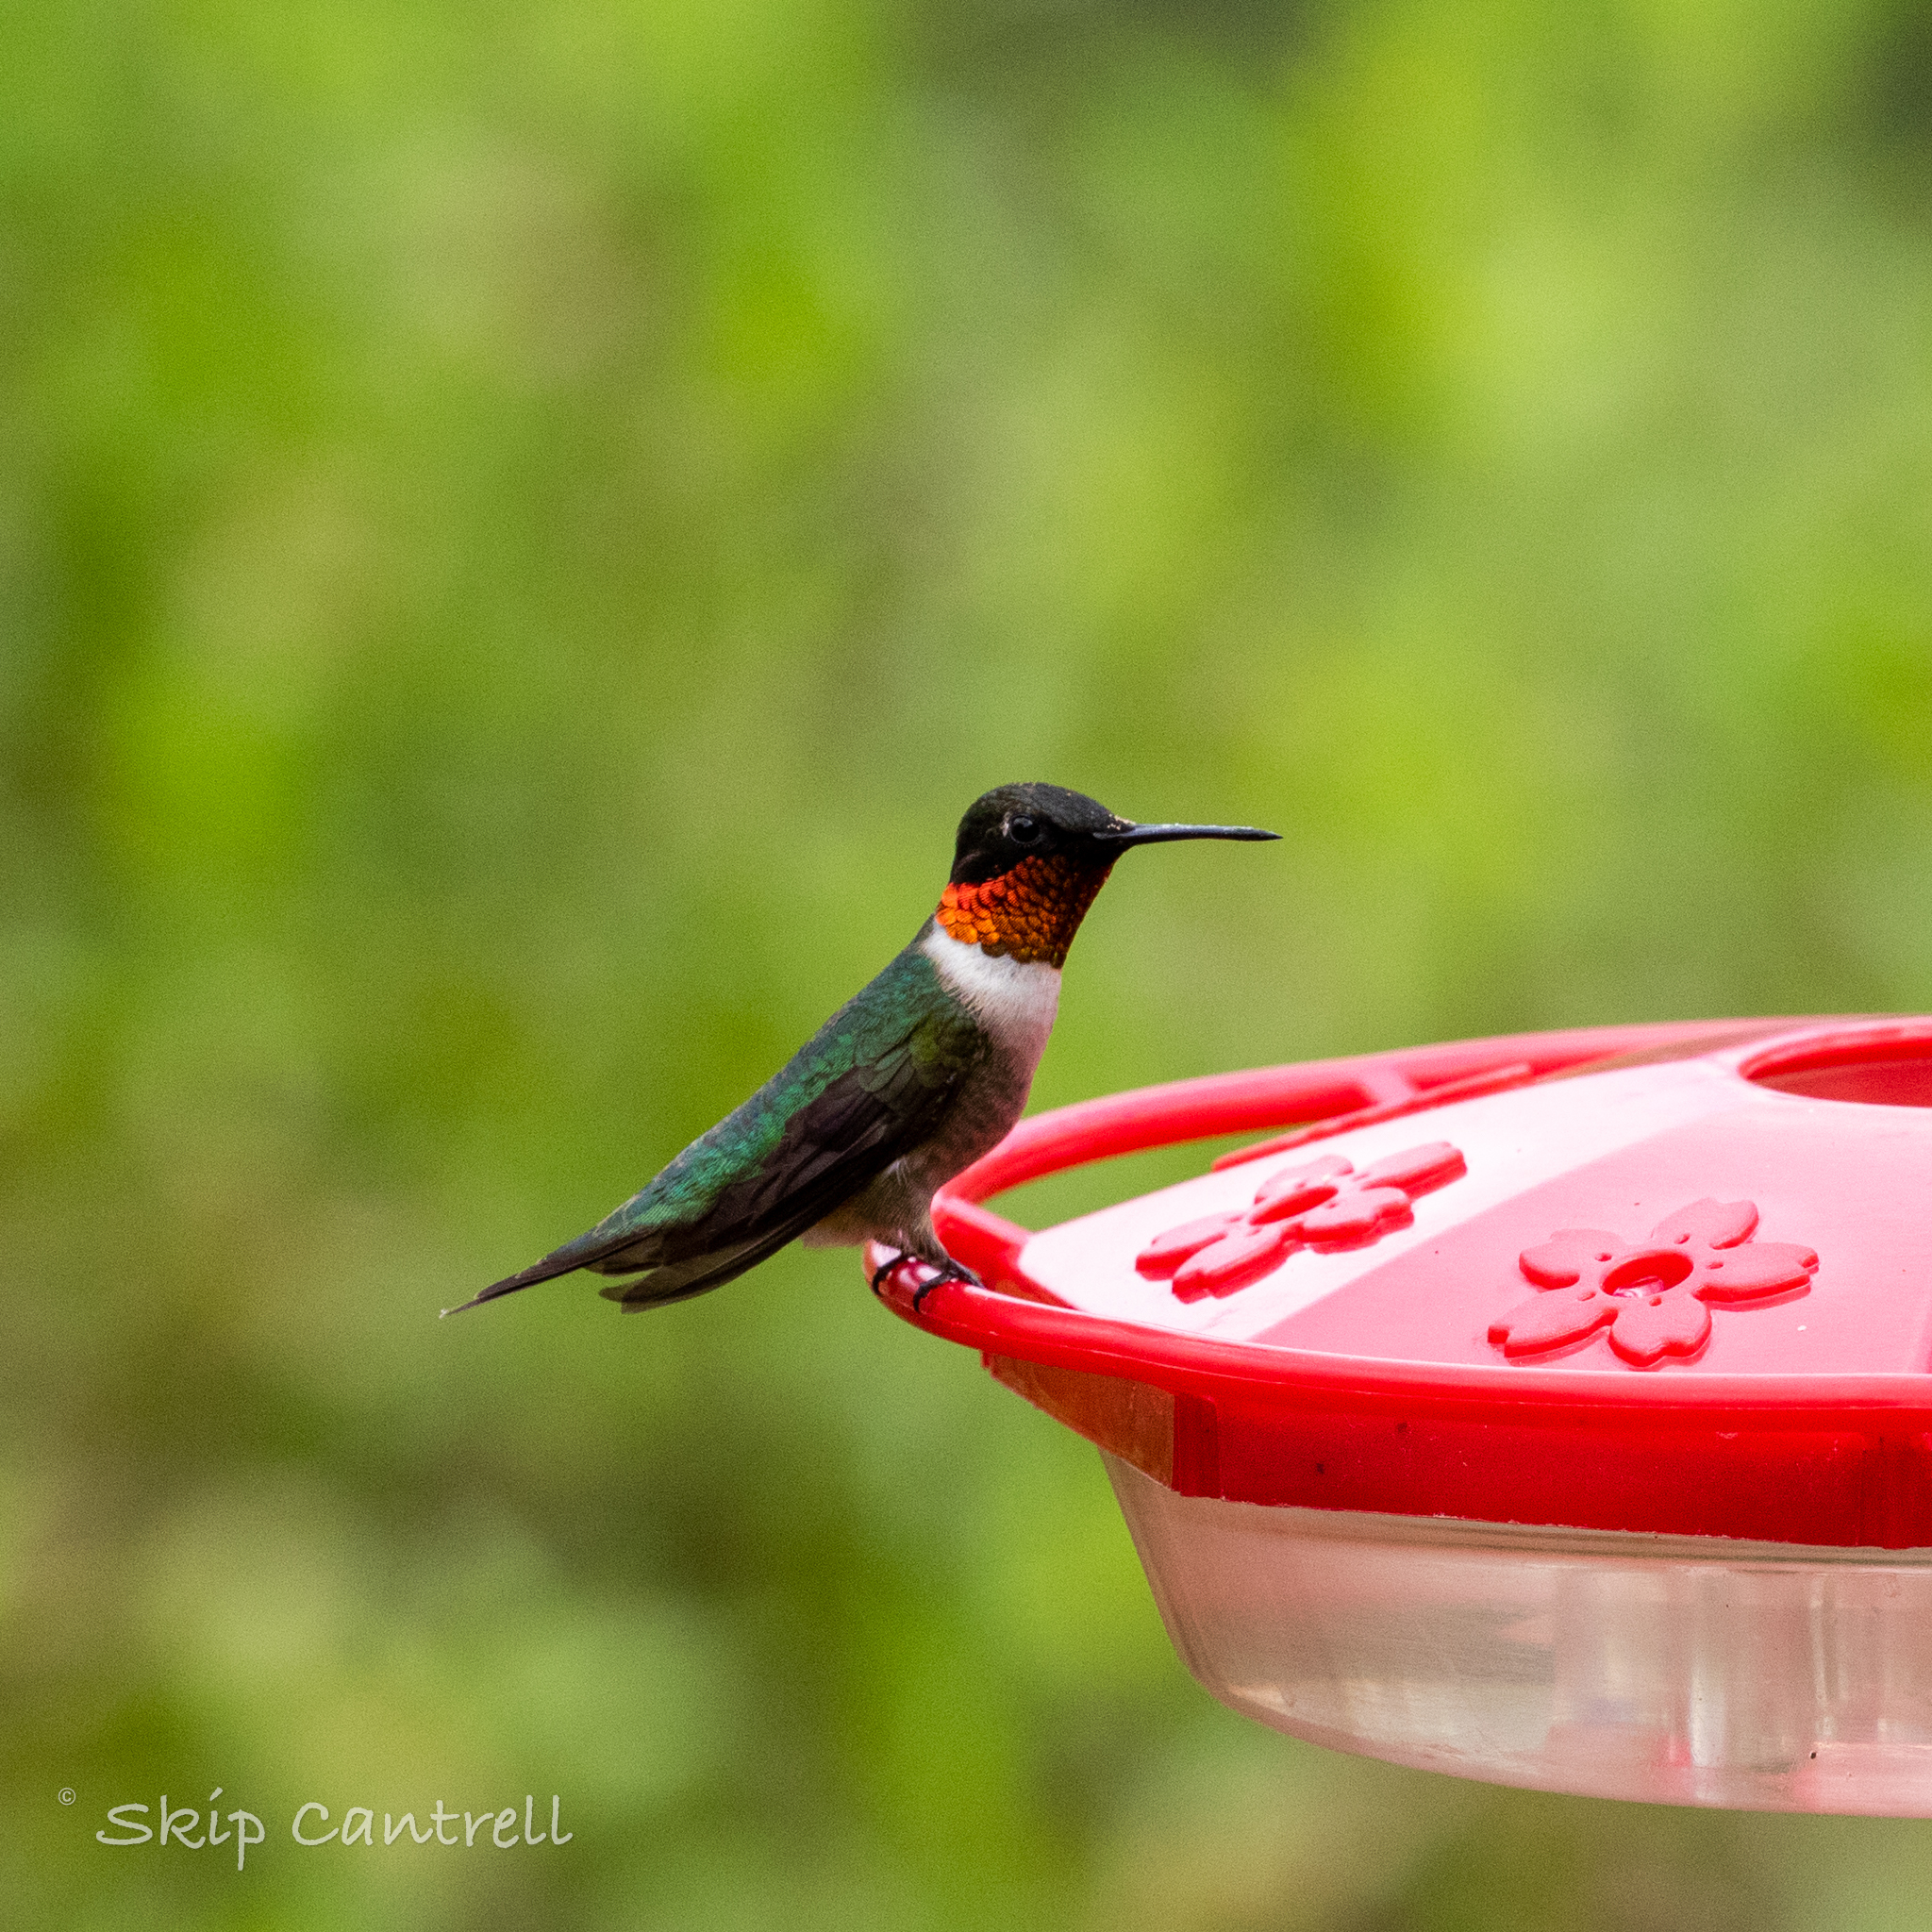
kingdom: Animalia
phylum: Chordata
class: Aves
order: Apodiformes
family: Trochilidae
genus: Archilochus
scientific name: Archilochus colubris
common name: Ruby-throated hummingbird
